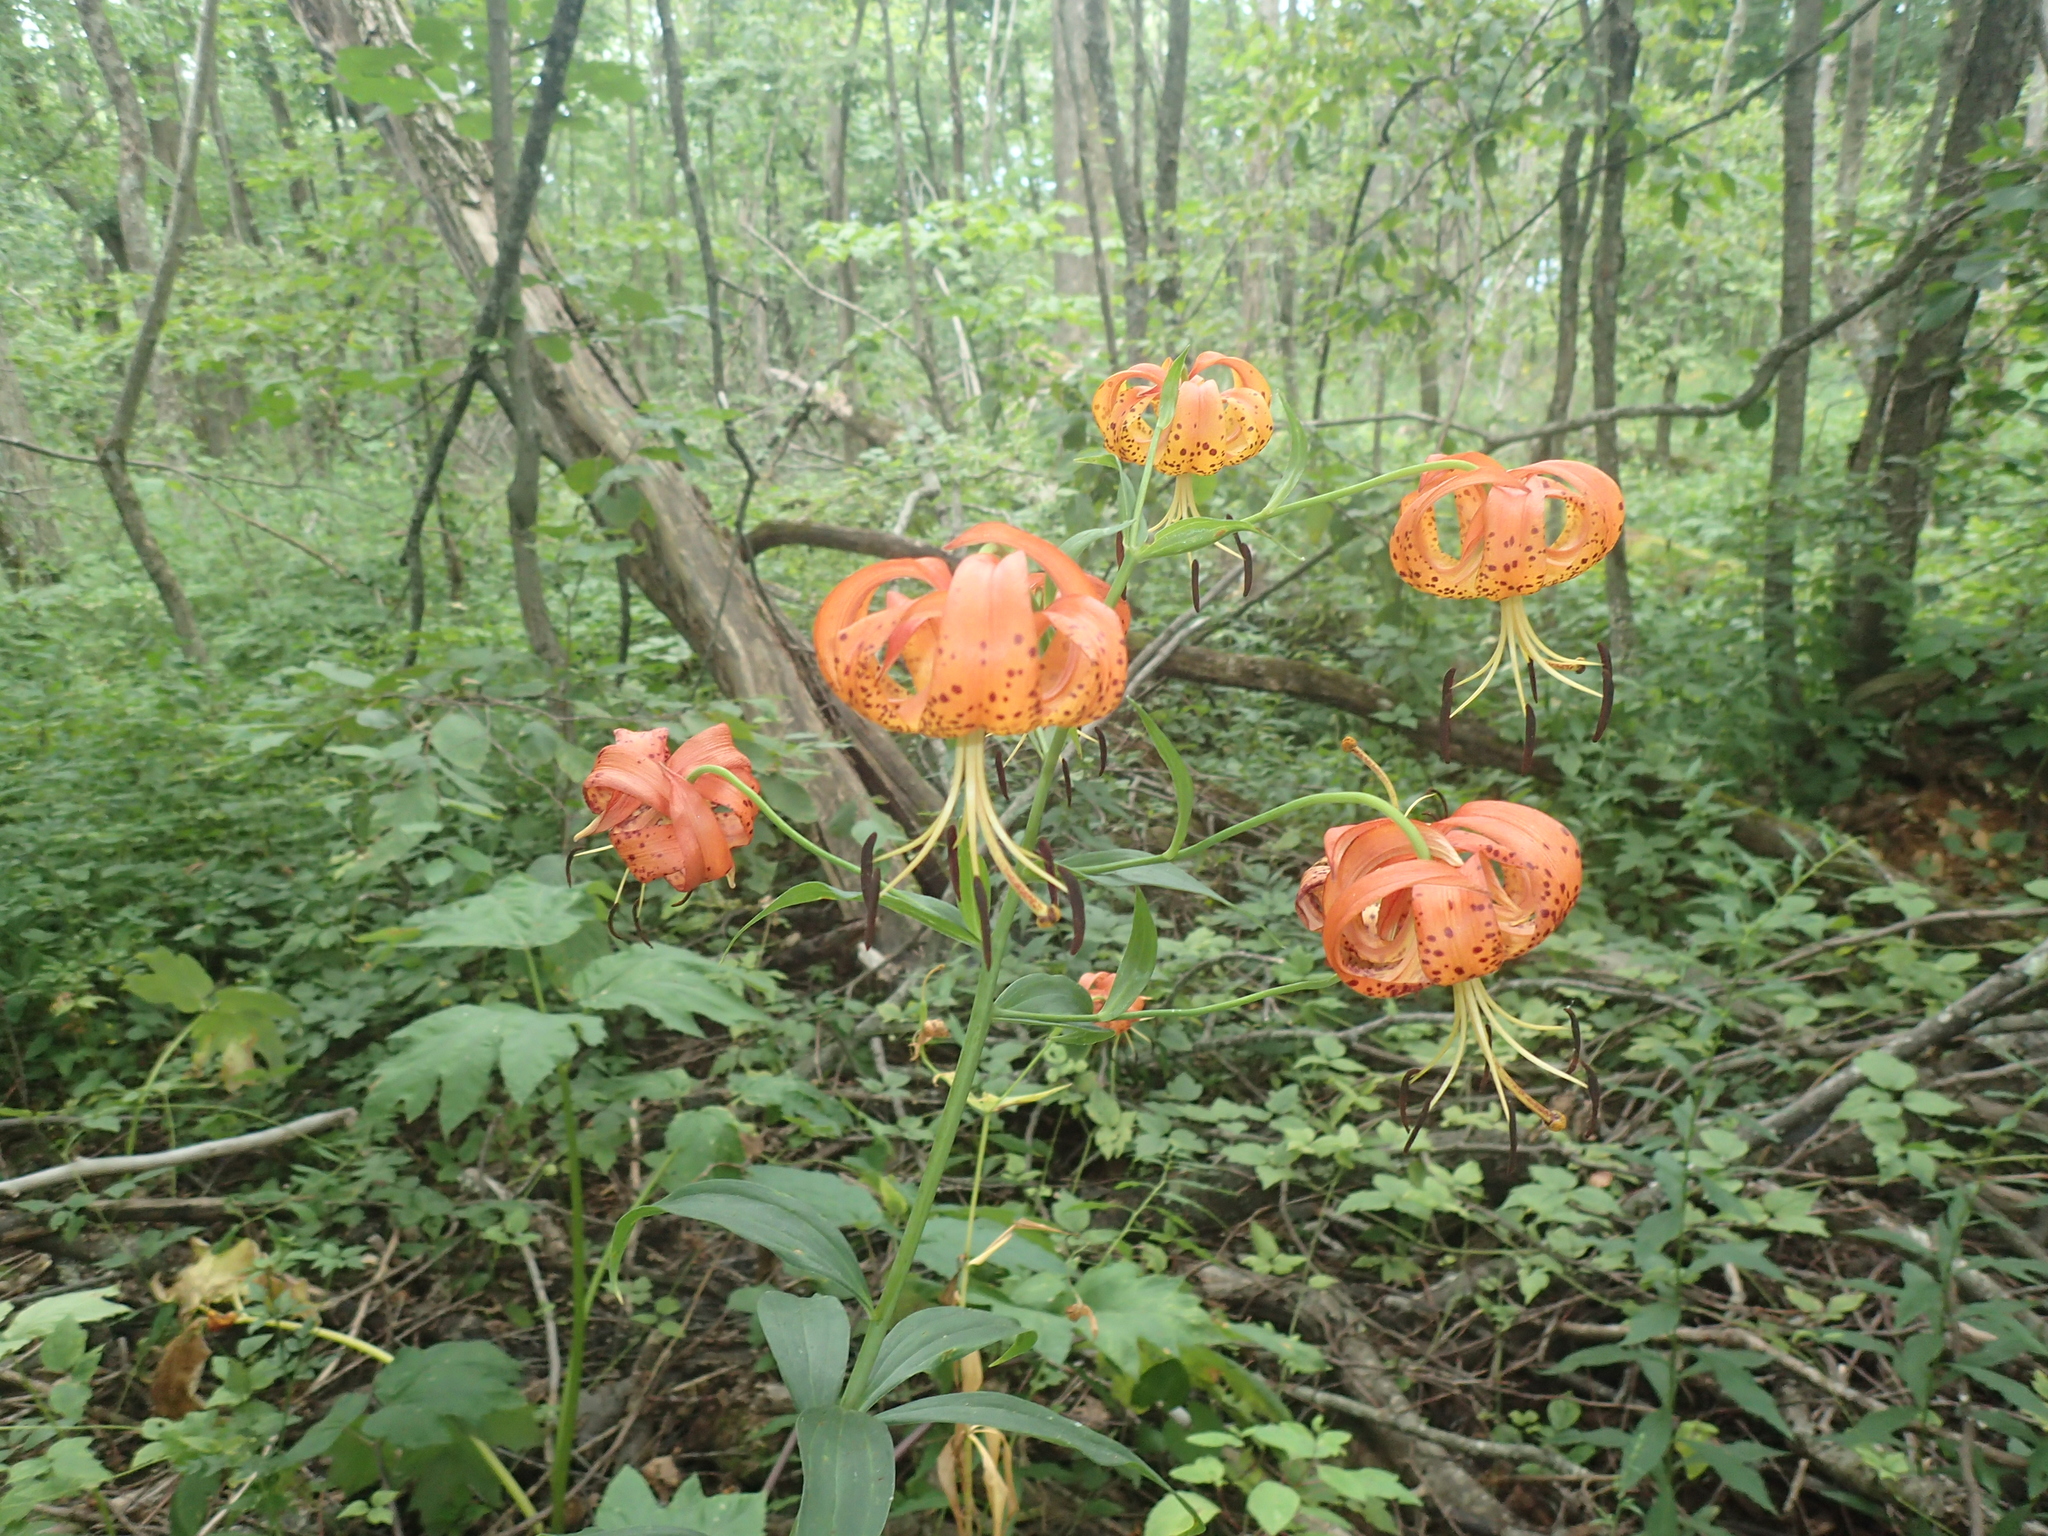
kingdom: Plantae
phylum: Tracheophyta
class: Liliopsida
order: Liliales
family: Liliaceae
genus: Lilium
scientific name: Lilium superbum
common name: American turk's-cap lily
